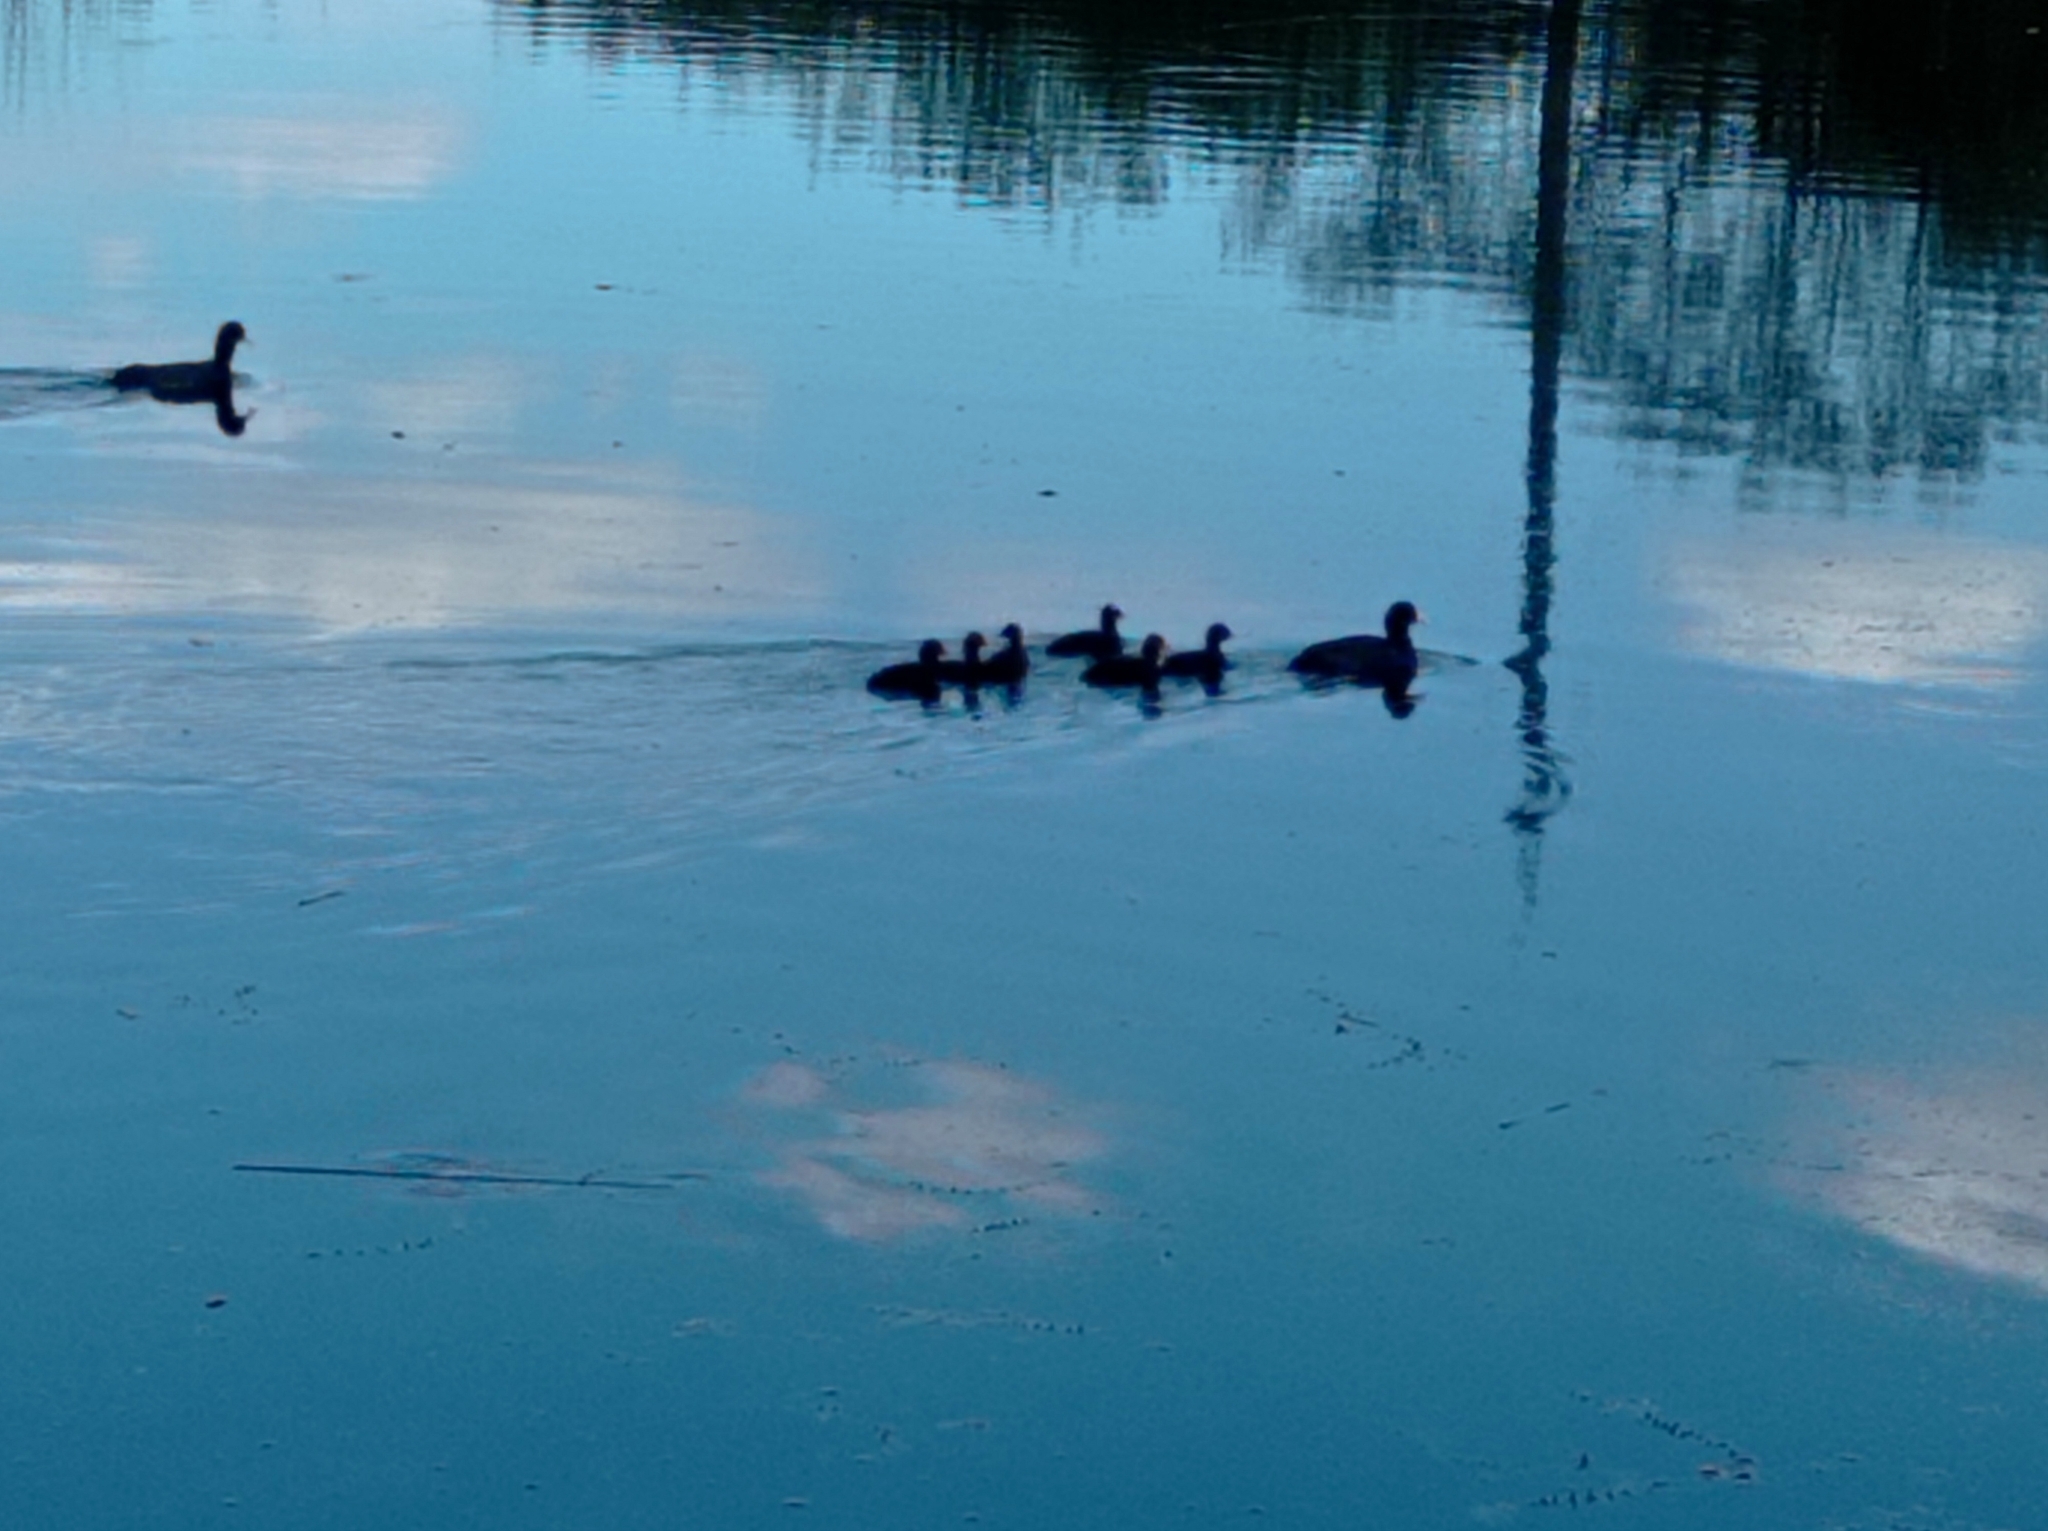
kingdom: Animalia
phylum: Chordata
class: Aves
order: Gruiformes
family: Rallidae
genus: Fulica
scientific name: Fulica atra
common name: Eurasian coot
